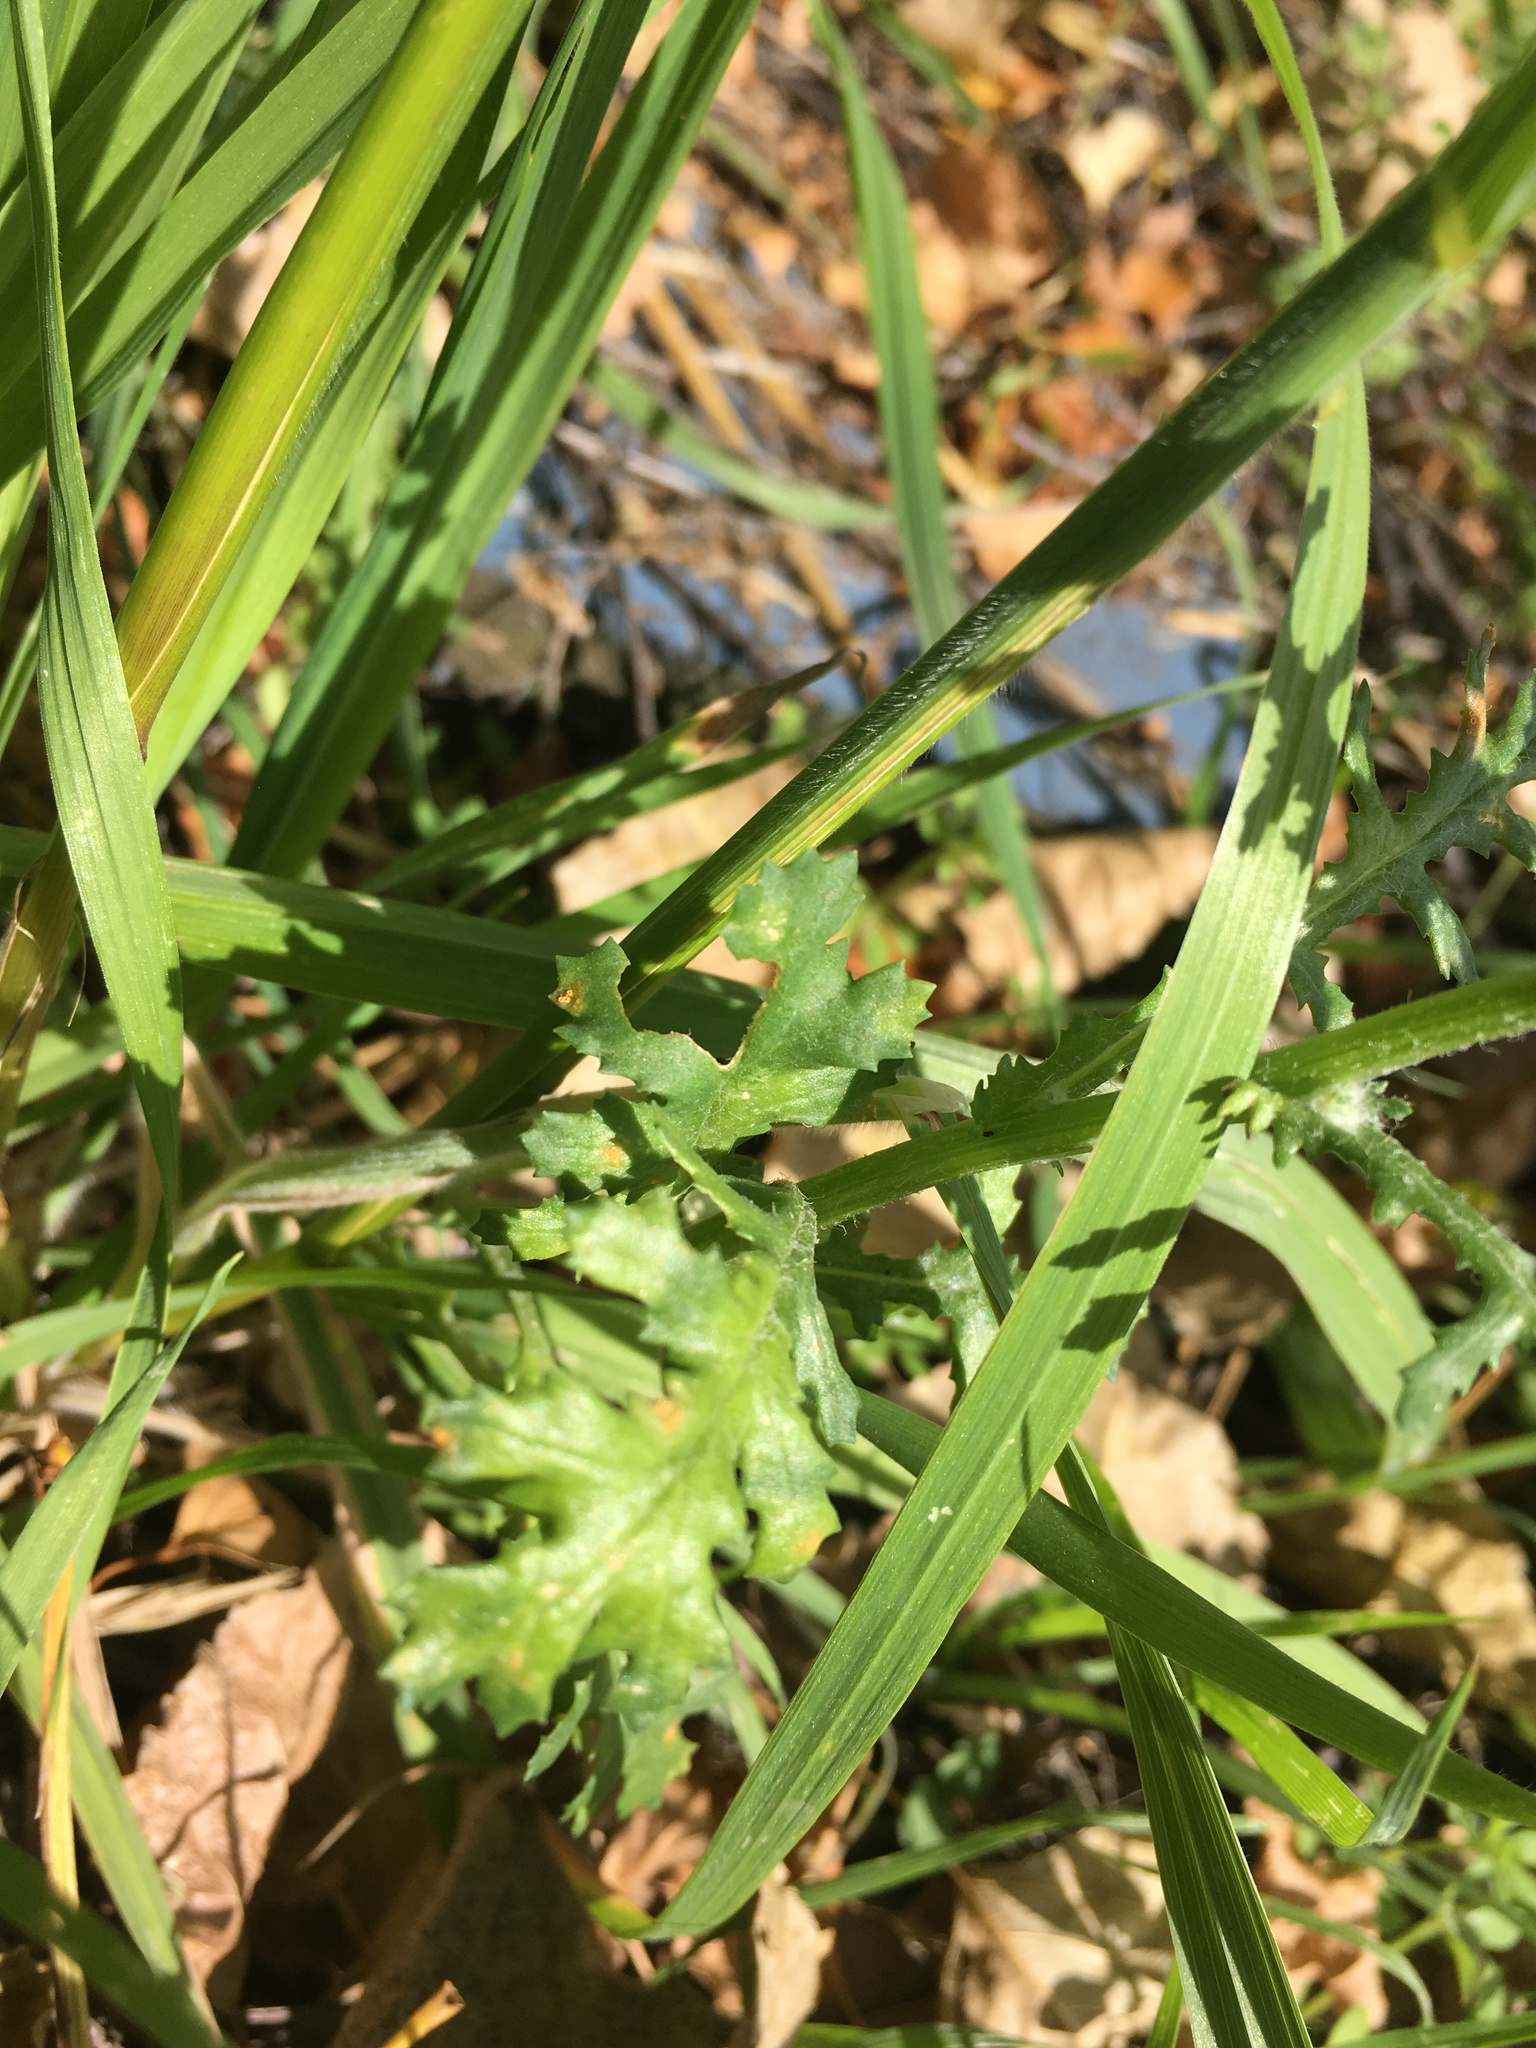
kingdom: Animalia
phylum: Mollusca
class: Gastropoda
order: Stylommatophora
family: Helicidae
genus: Cornu
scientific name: Cornu aspersum
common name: Brown garden snail
